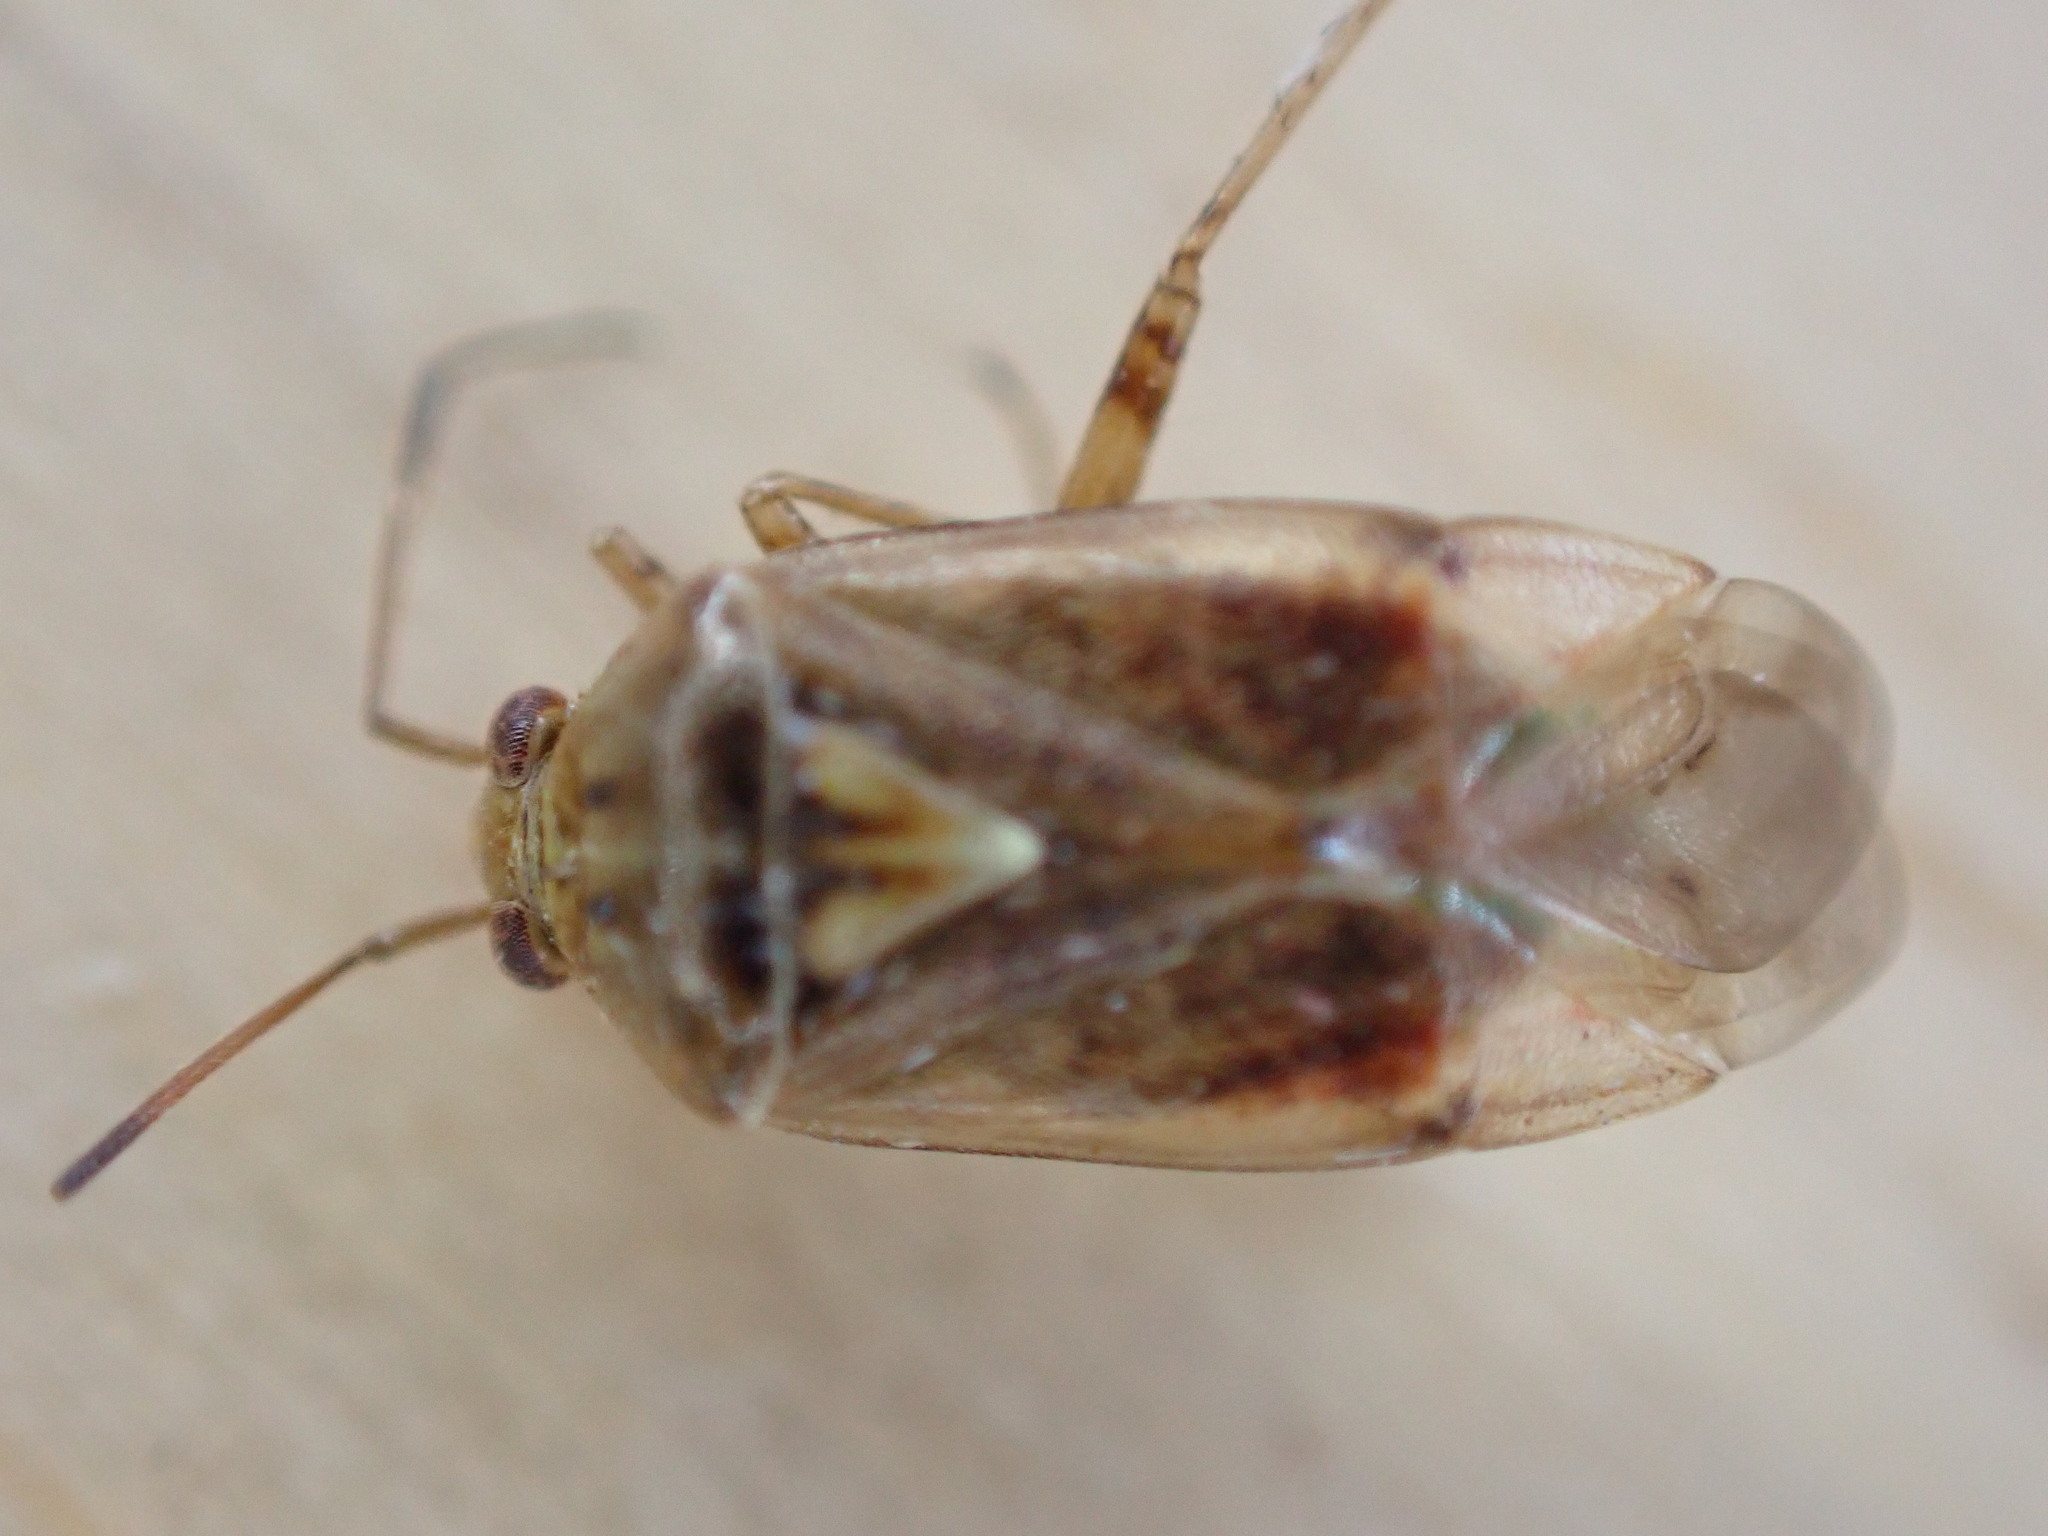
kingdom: Animalia
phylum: Arthropoda
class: Insecta
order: Hemiptera
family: Miridae
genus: Lygus
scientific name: Lygus rugulipennis
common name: European tarnished plant bug
